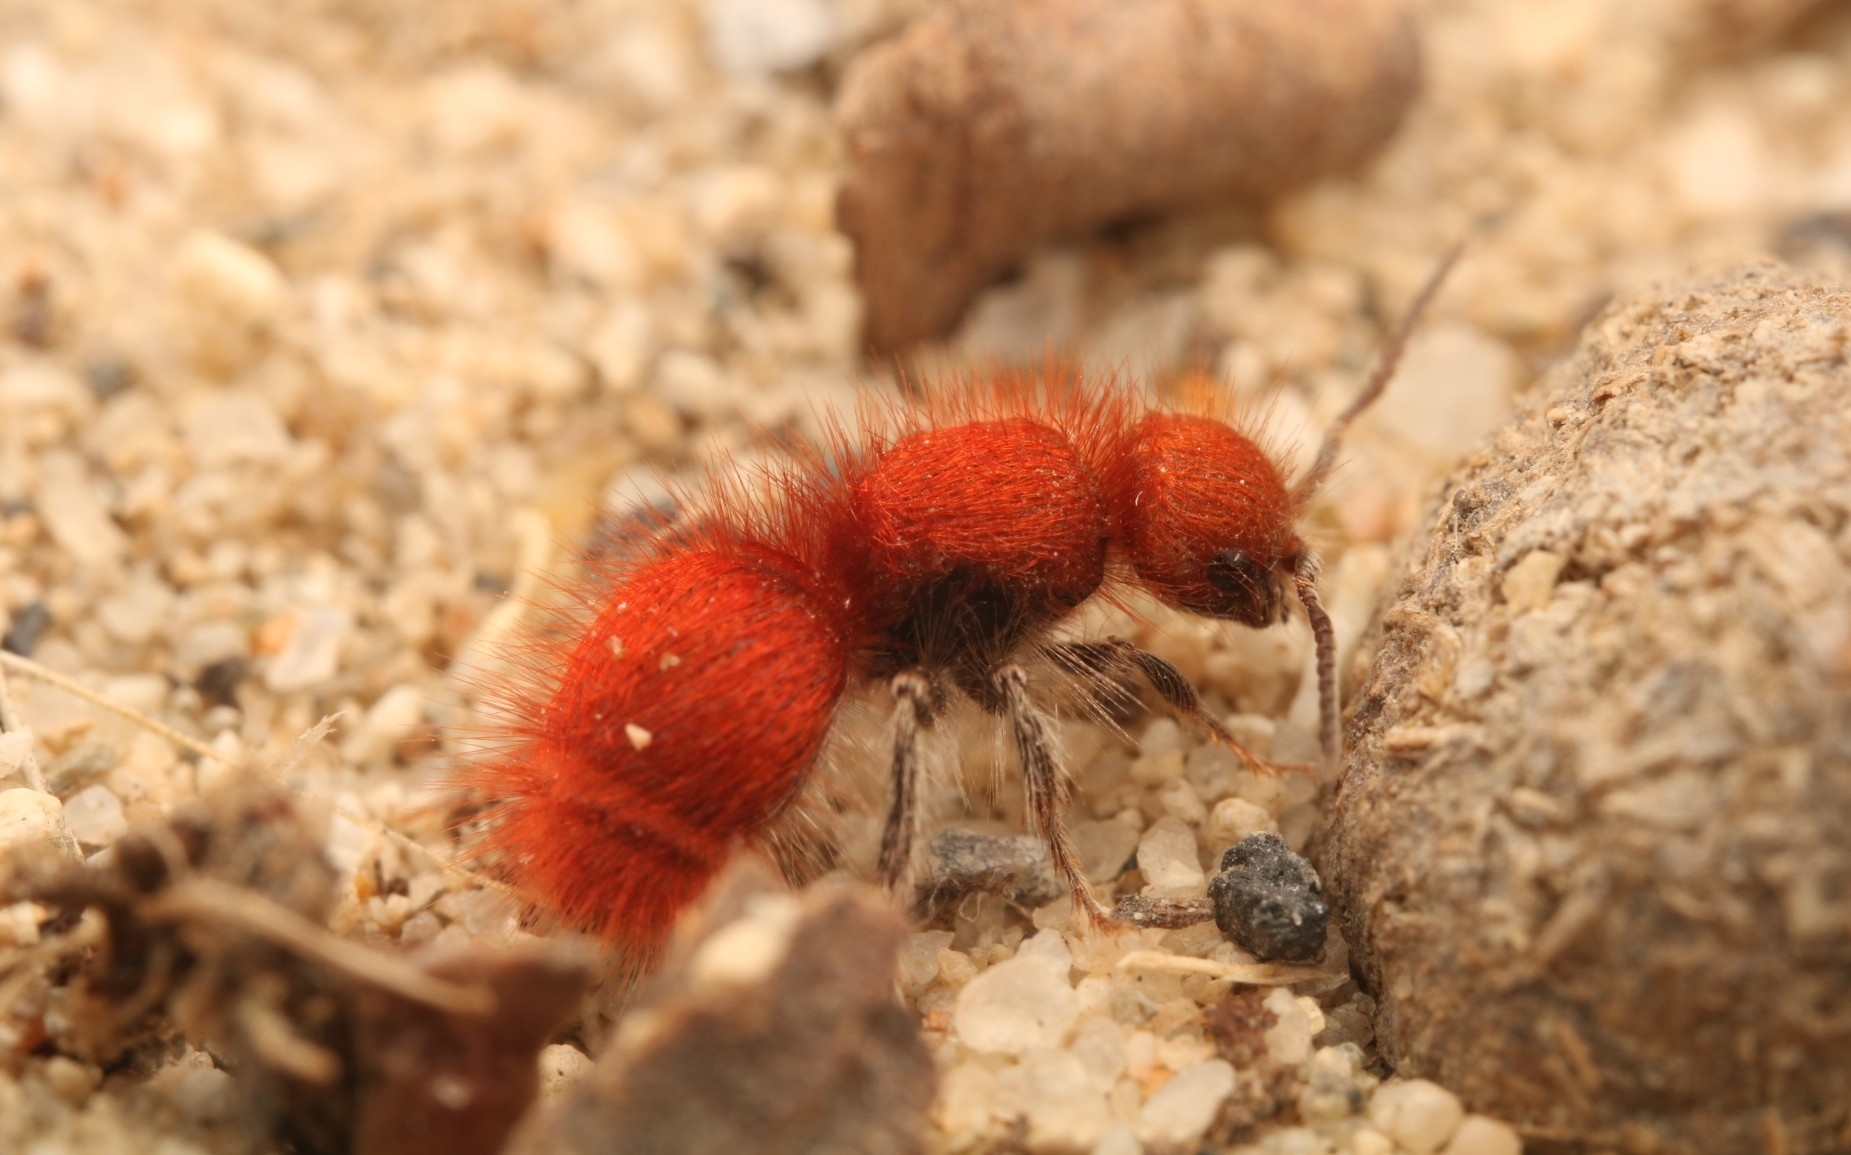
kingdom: Animalia
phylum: Arthropoda
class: Insecta
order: Hymenoptera
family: Mutillidae
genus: Sphaeropthalma
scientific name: Sphaeropthalma unicolor
